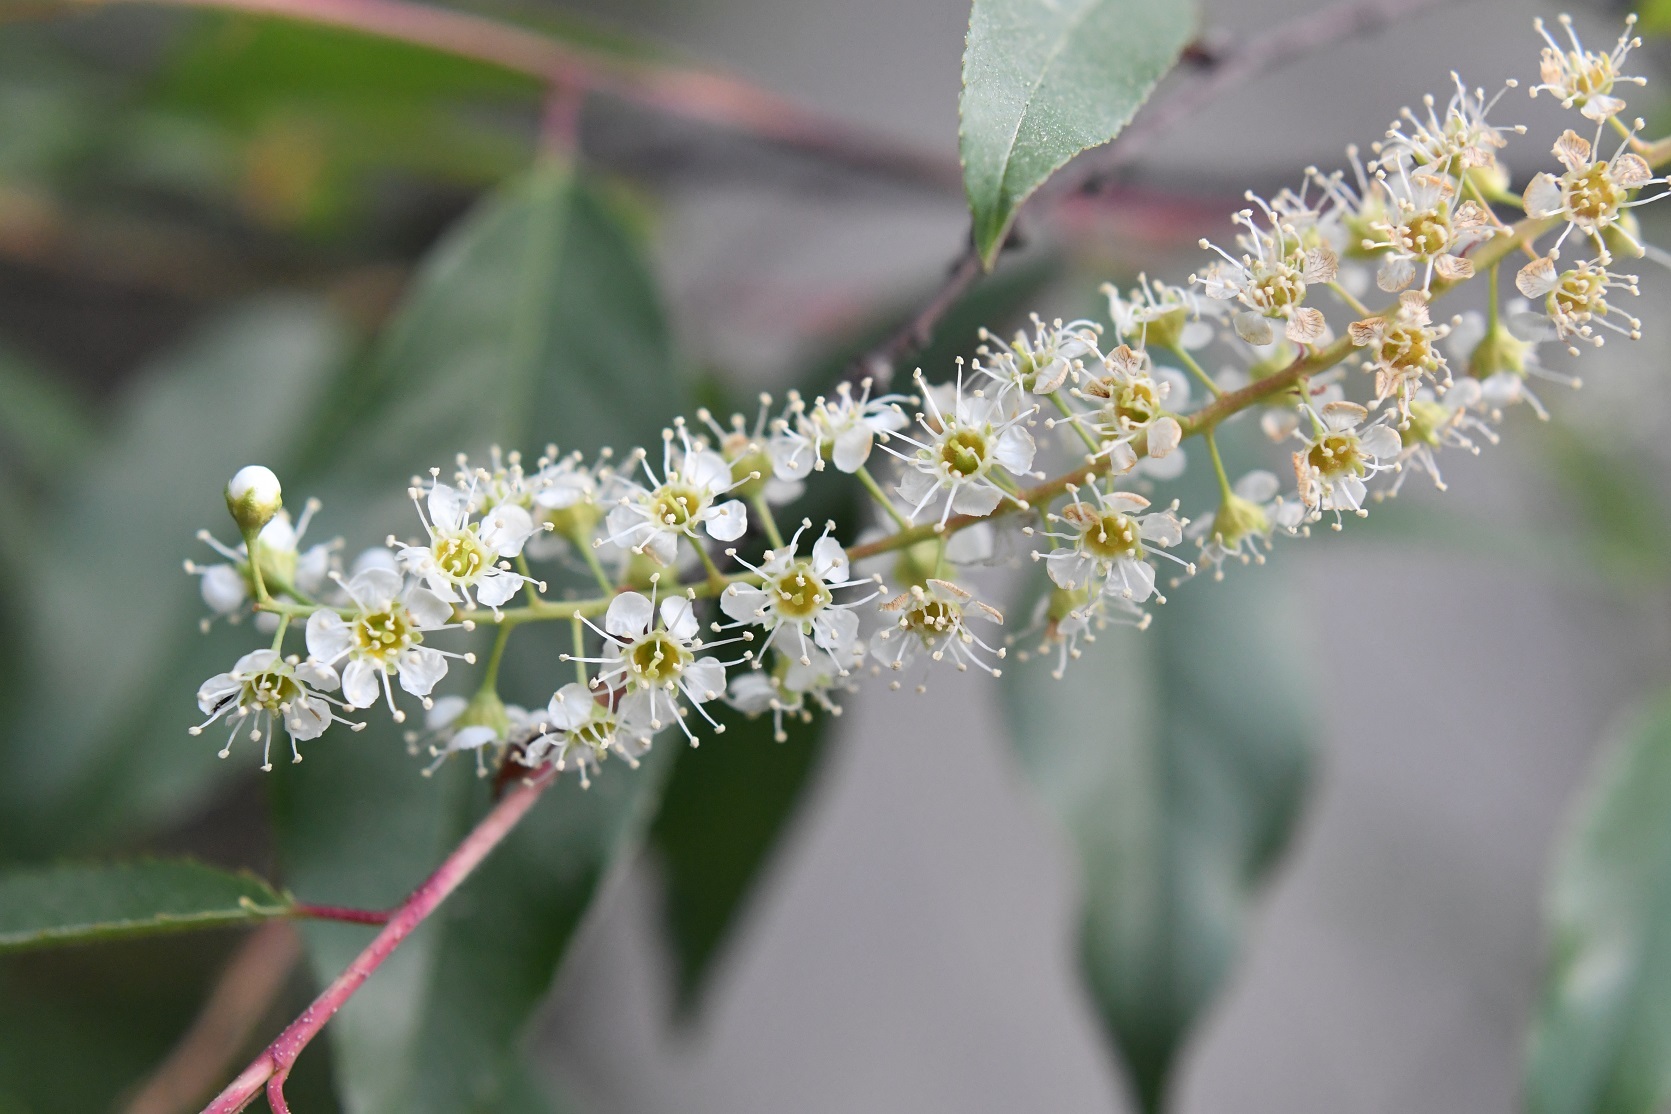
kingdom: Plantae
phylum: Tracheophyta
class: Magnoliopsida
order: Rosales
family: Rosaceae
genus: Prunus
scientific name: Prunus serotina
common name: Black cherry
